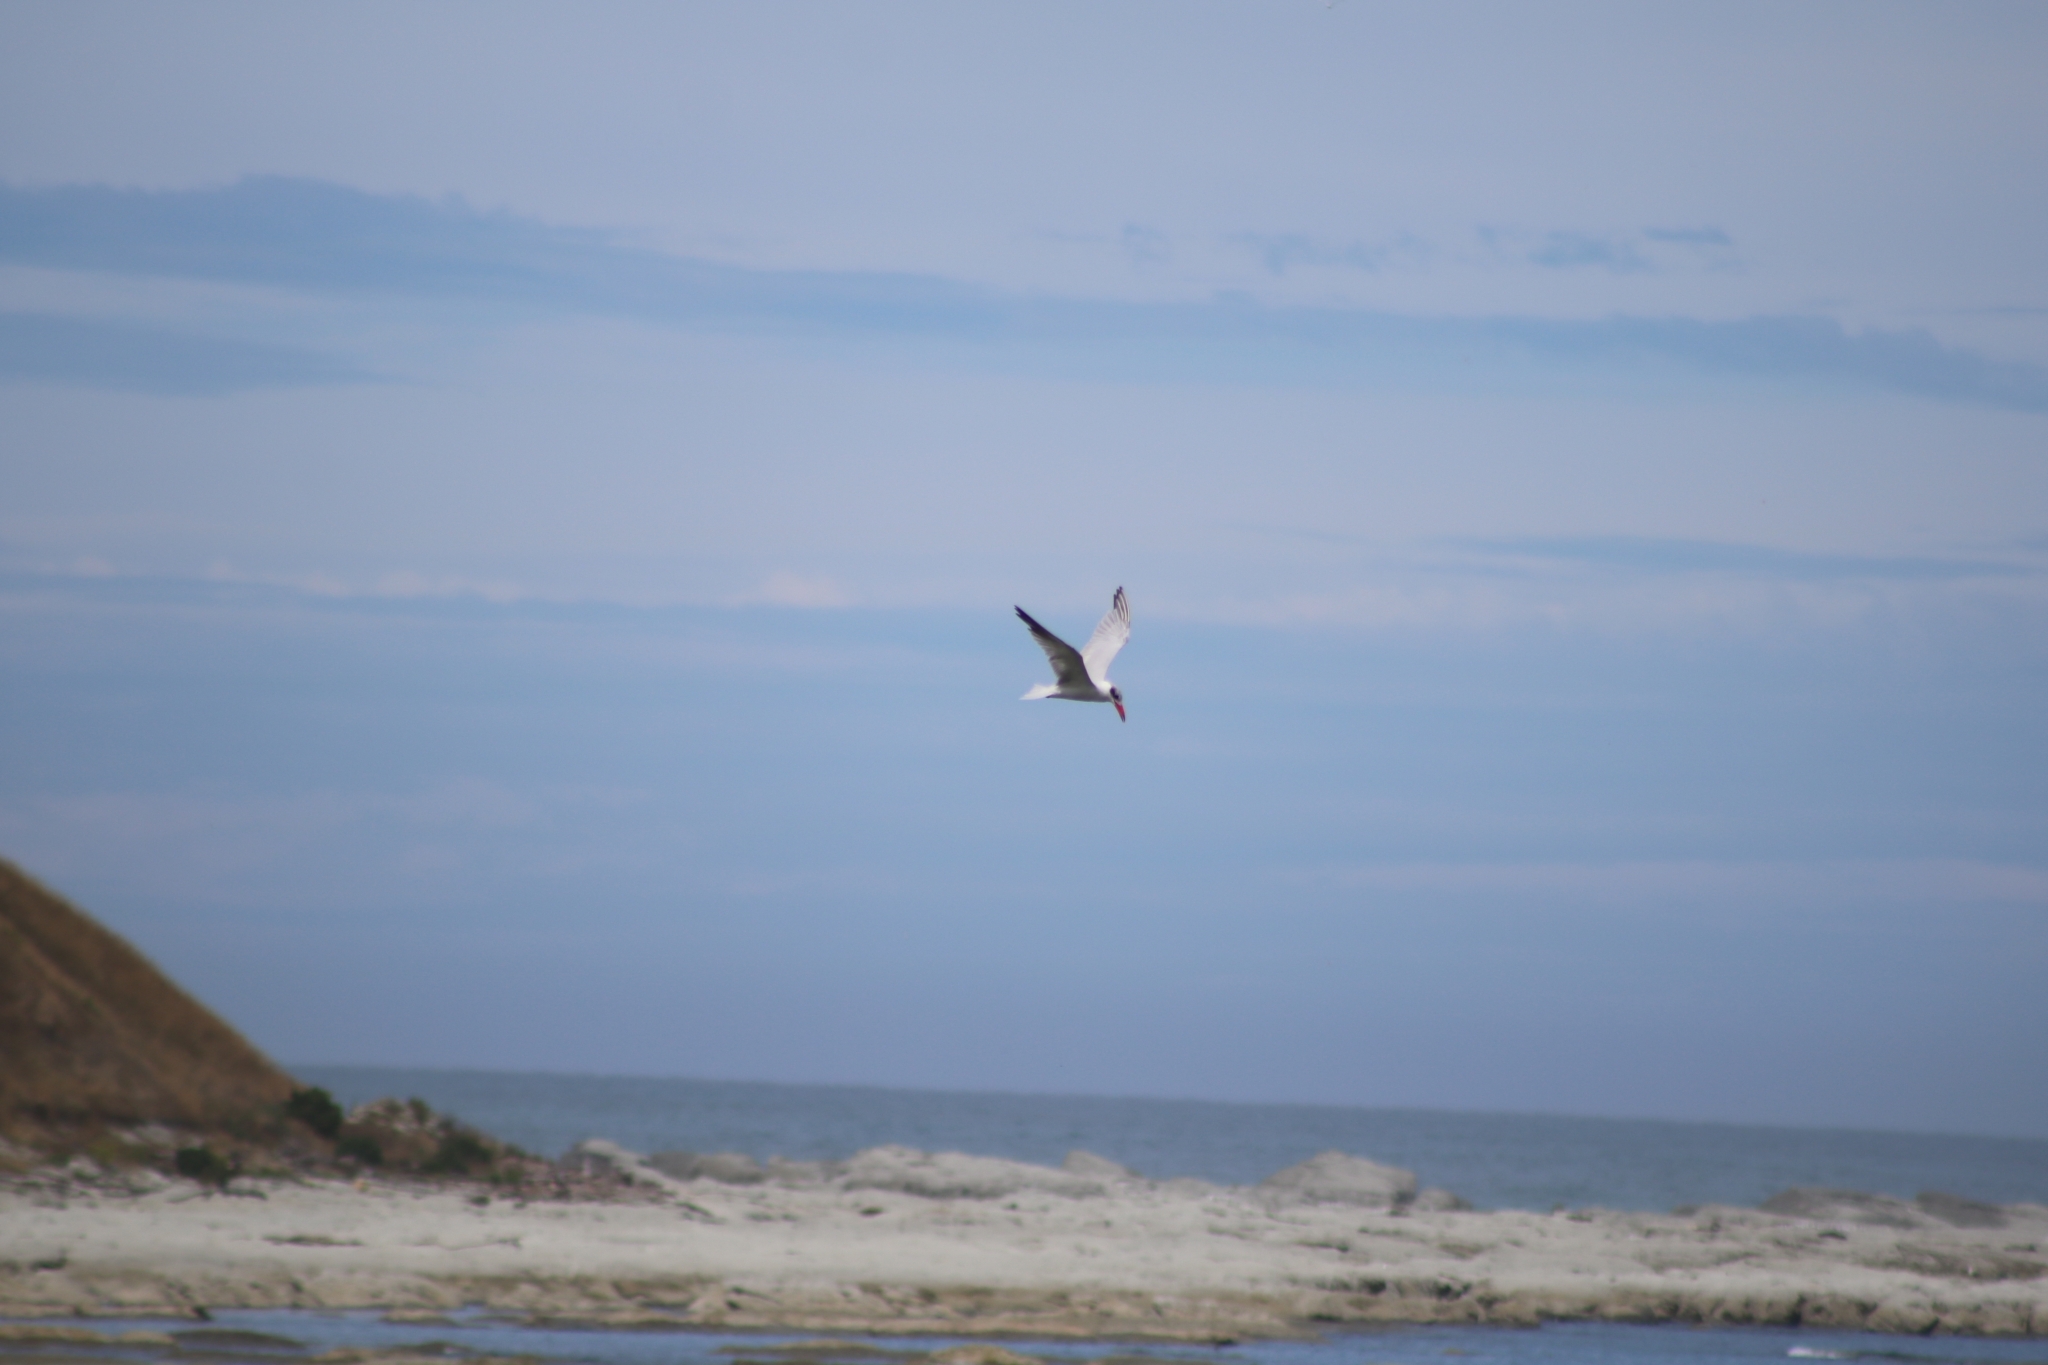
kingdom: Animalia
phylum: Chordata
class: Aves
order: Charadriiformes
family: Laridae
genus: Hydroprogne
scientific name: Hydroprogne caspia
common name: Caspian tern
